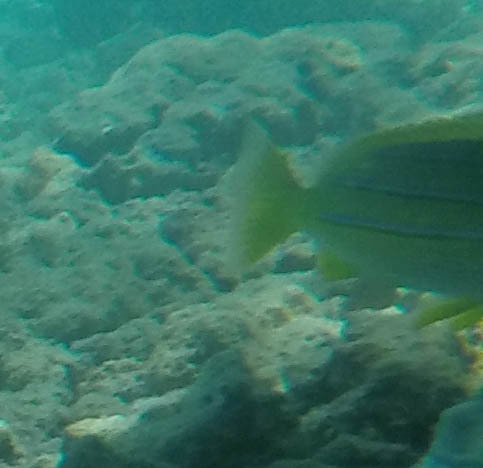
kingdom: Animalia
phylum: Chordata
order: Perciformes
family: Lutjanidae
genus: Lutjanus
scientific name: Lutjanus kasmira
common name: Common bluestripe snapper
